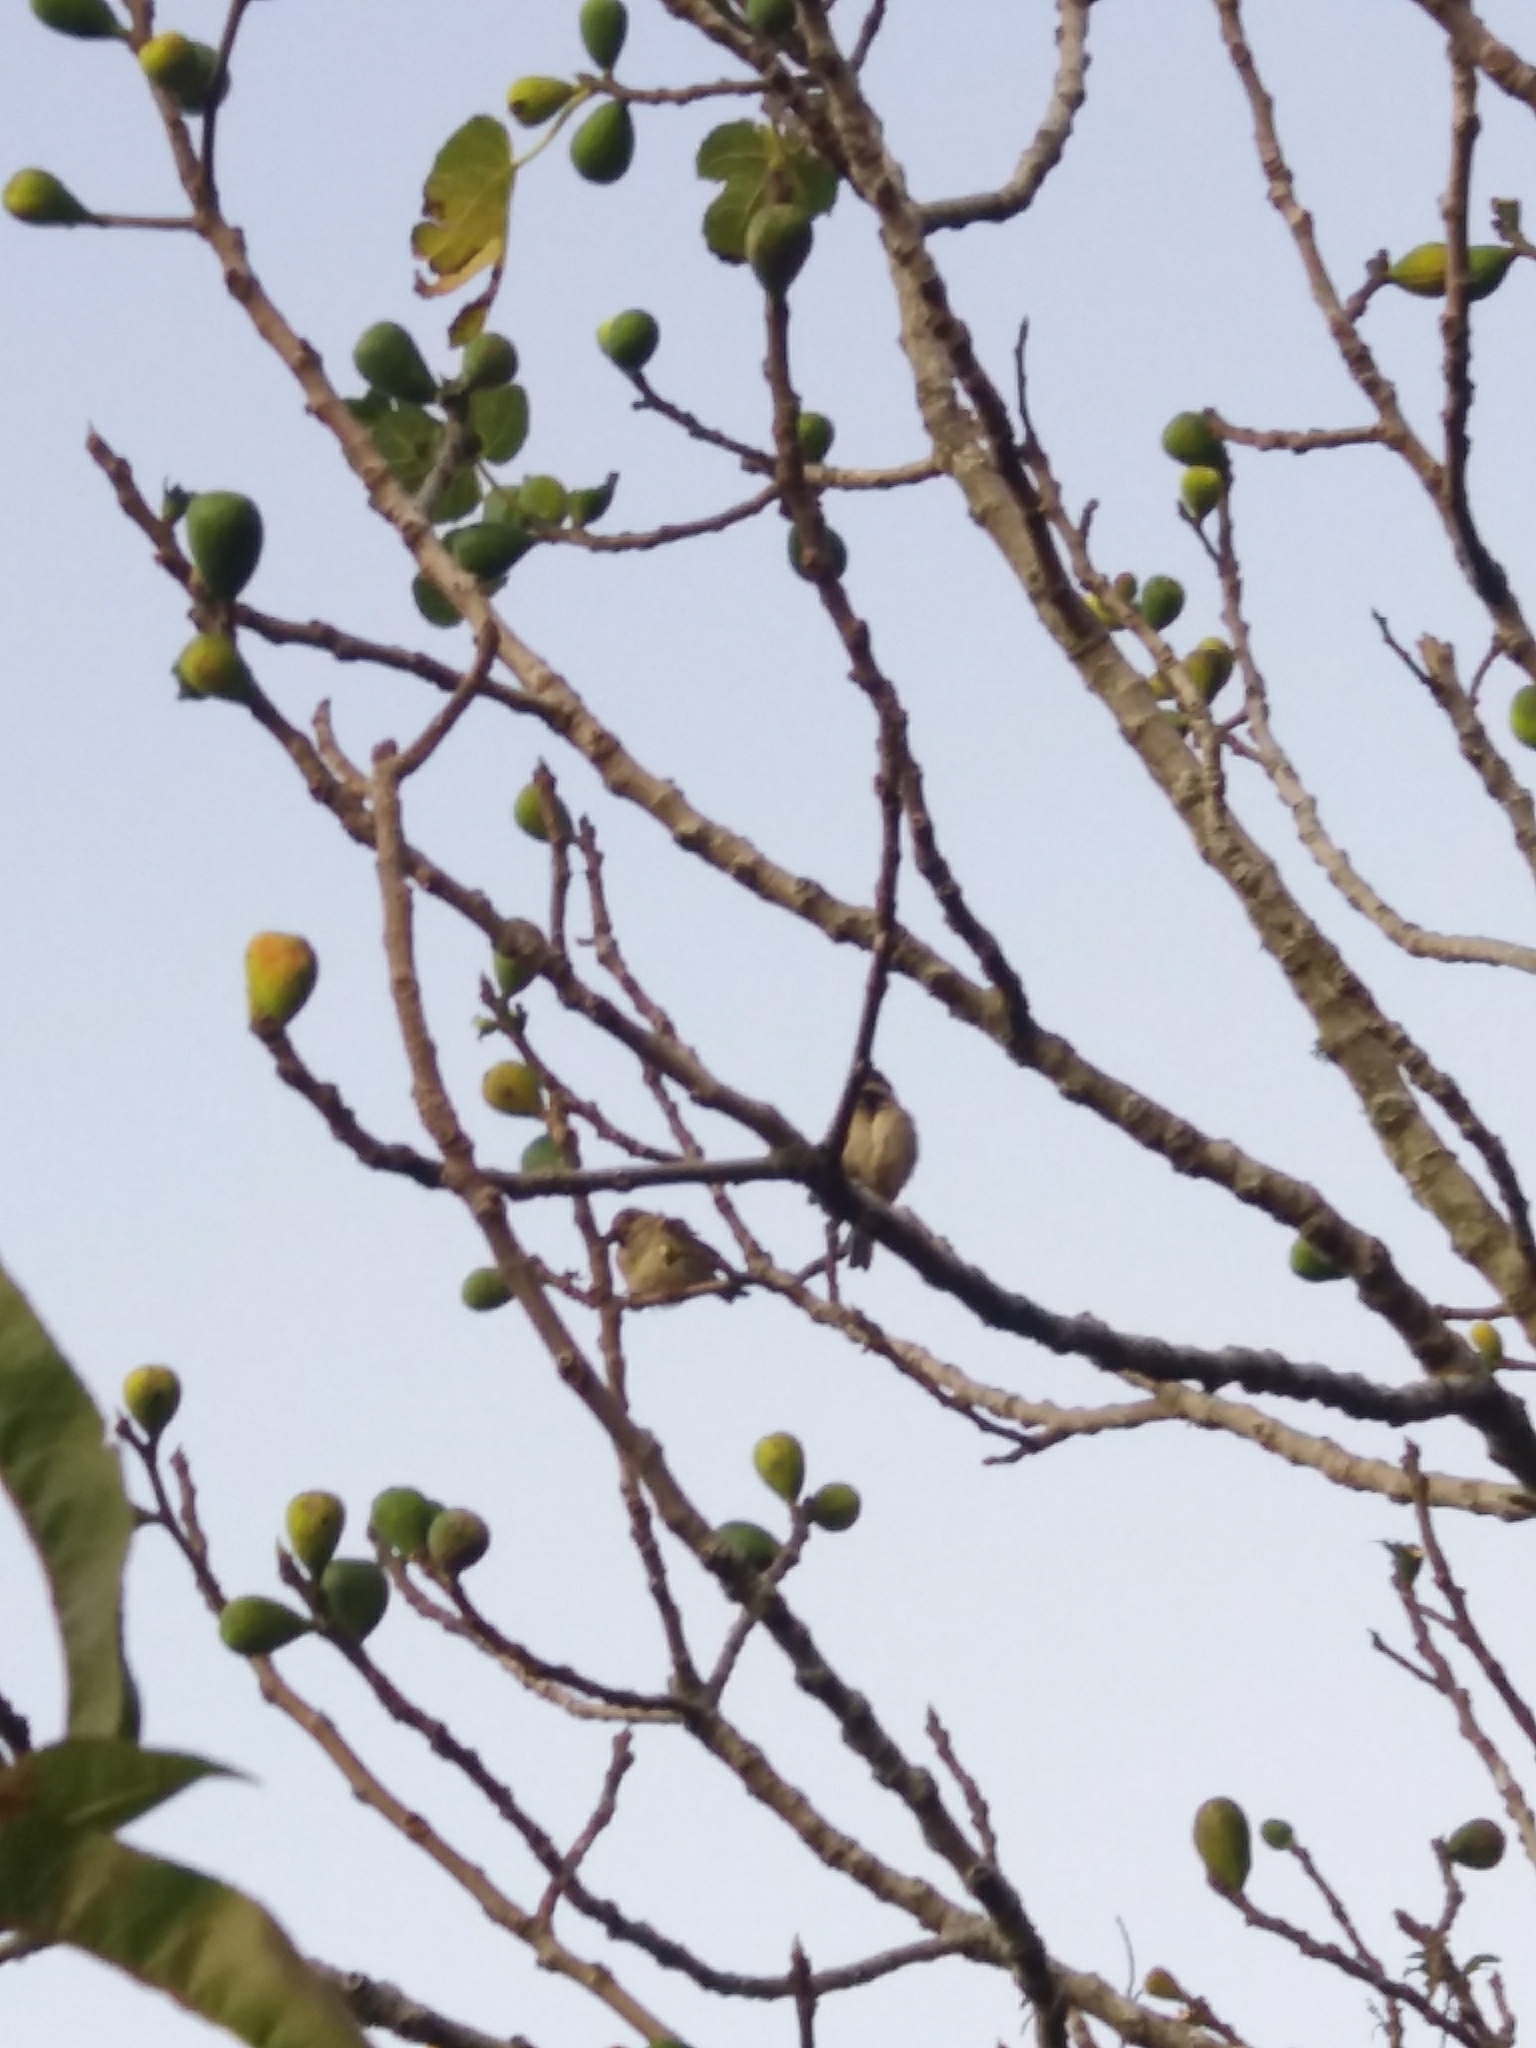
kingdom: Animalia
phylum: Chordata
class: Aves
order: Passeriformes
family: Passeridae
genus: Passer
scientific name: Passer domesticus
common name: House sparrow
